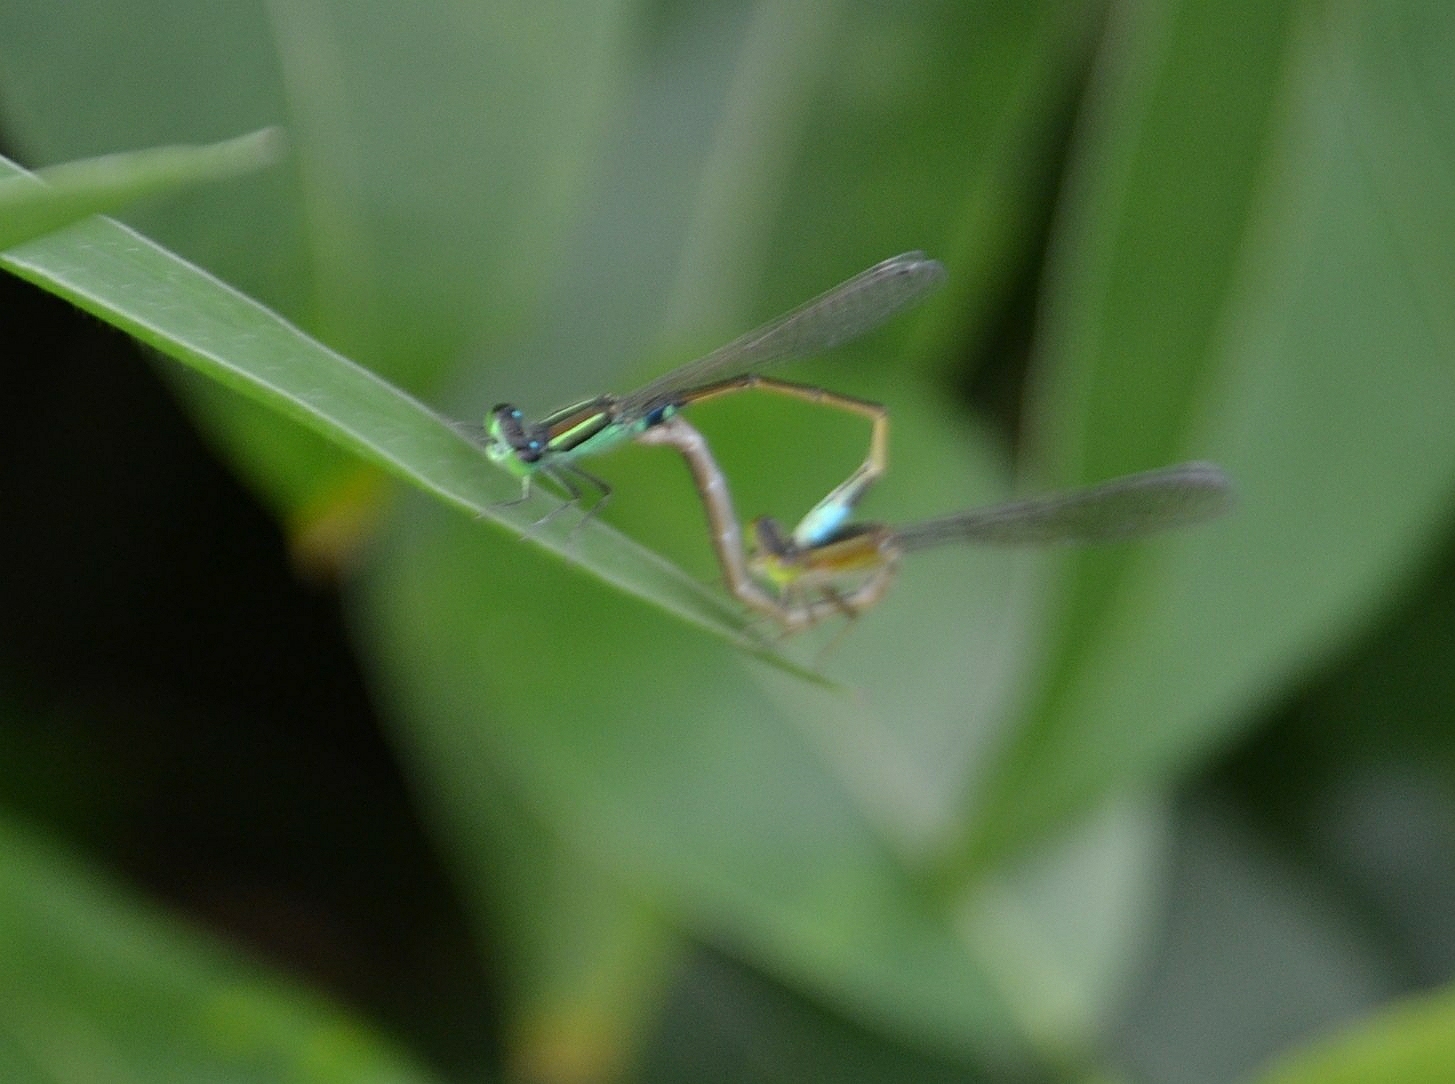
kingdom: Animalia
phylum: Arthropoda
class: Insecta
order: Odonata
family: Coenagrionidae
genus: Ischnura
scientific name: Ischnura senegalensis
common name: Tropical bluetail
